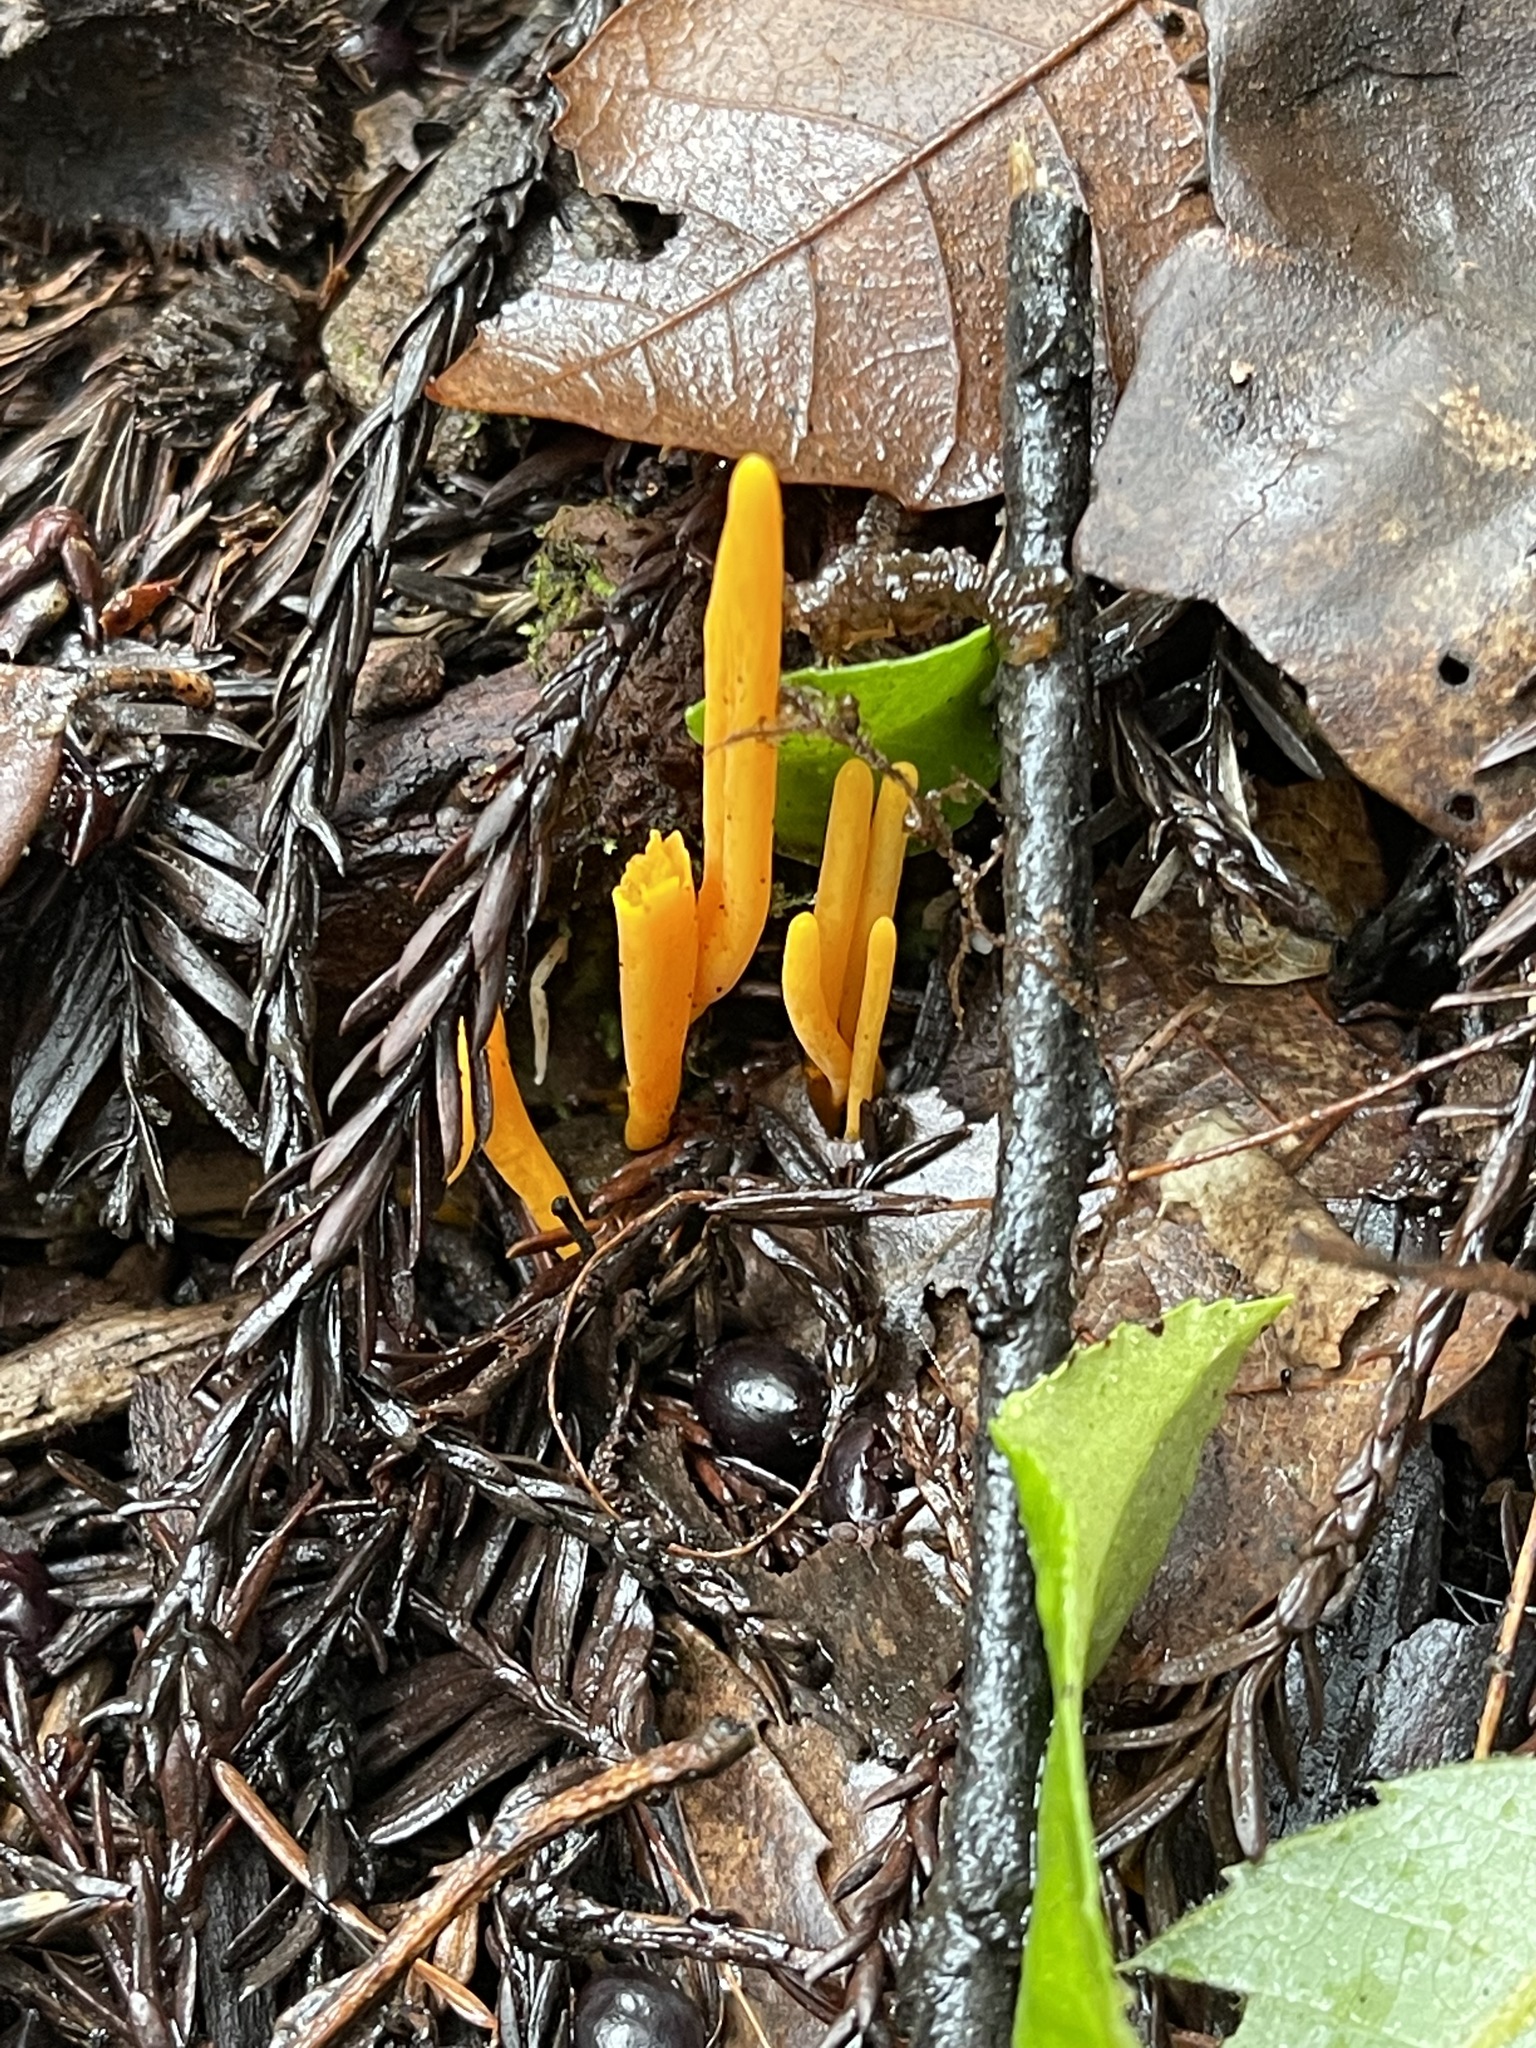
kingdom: Fungi
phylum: Basidiomycota
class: Agaricomycetes
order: Agaricales
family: Clavariaceae
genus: Clavulinopsis
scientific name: Clavulinopsis laeticolor
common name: Handsome club
